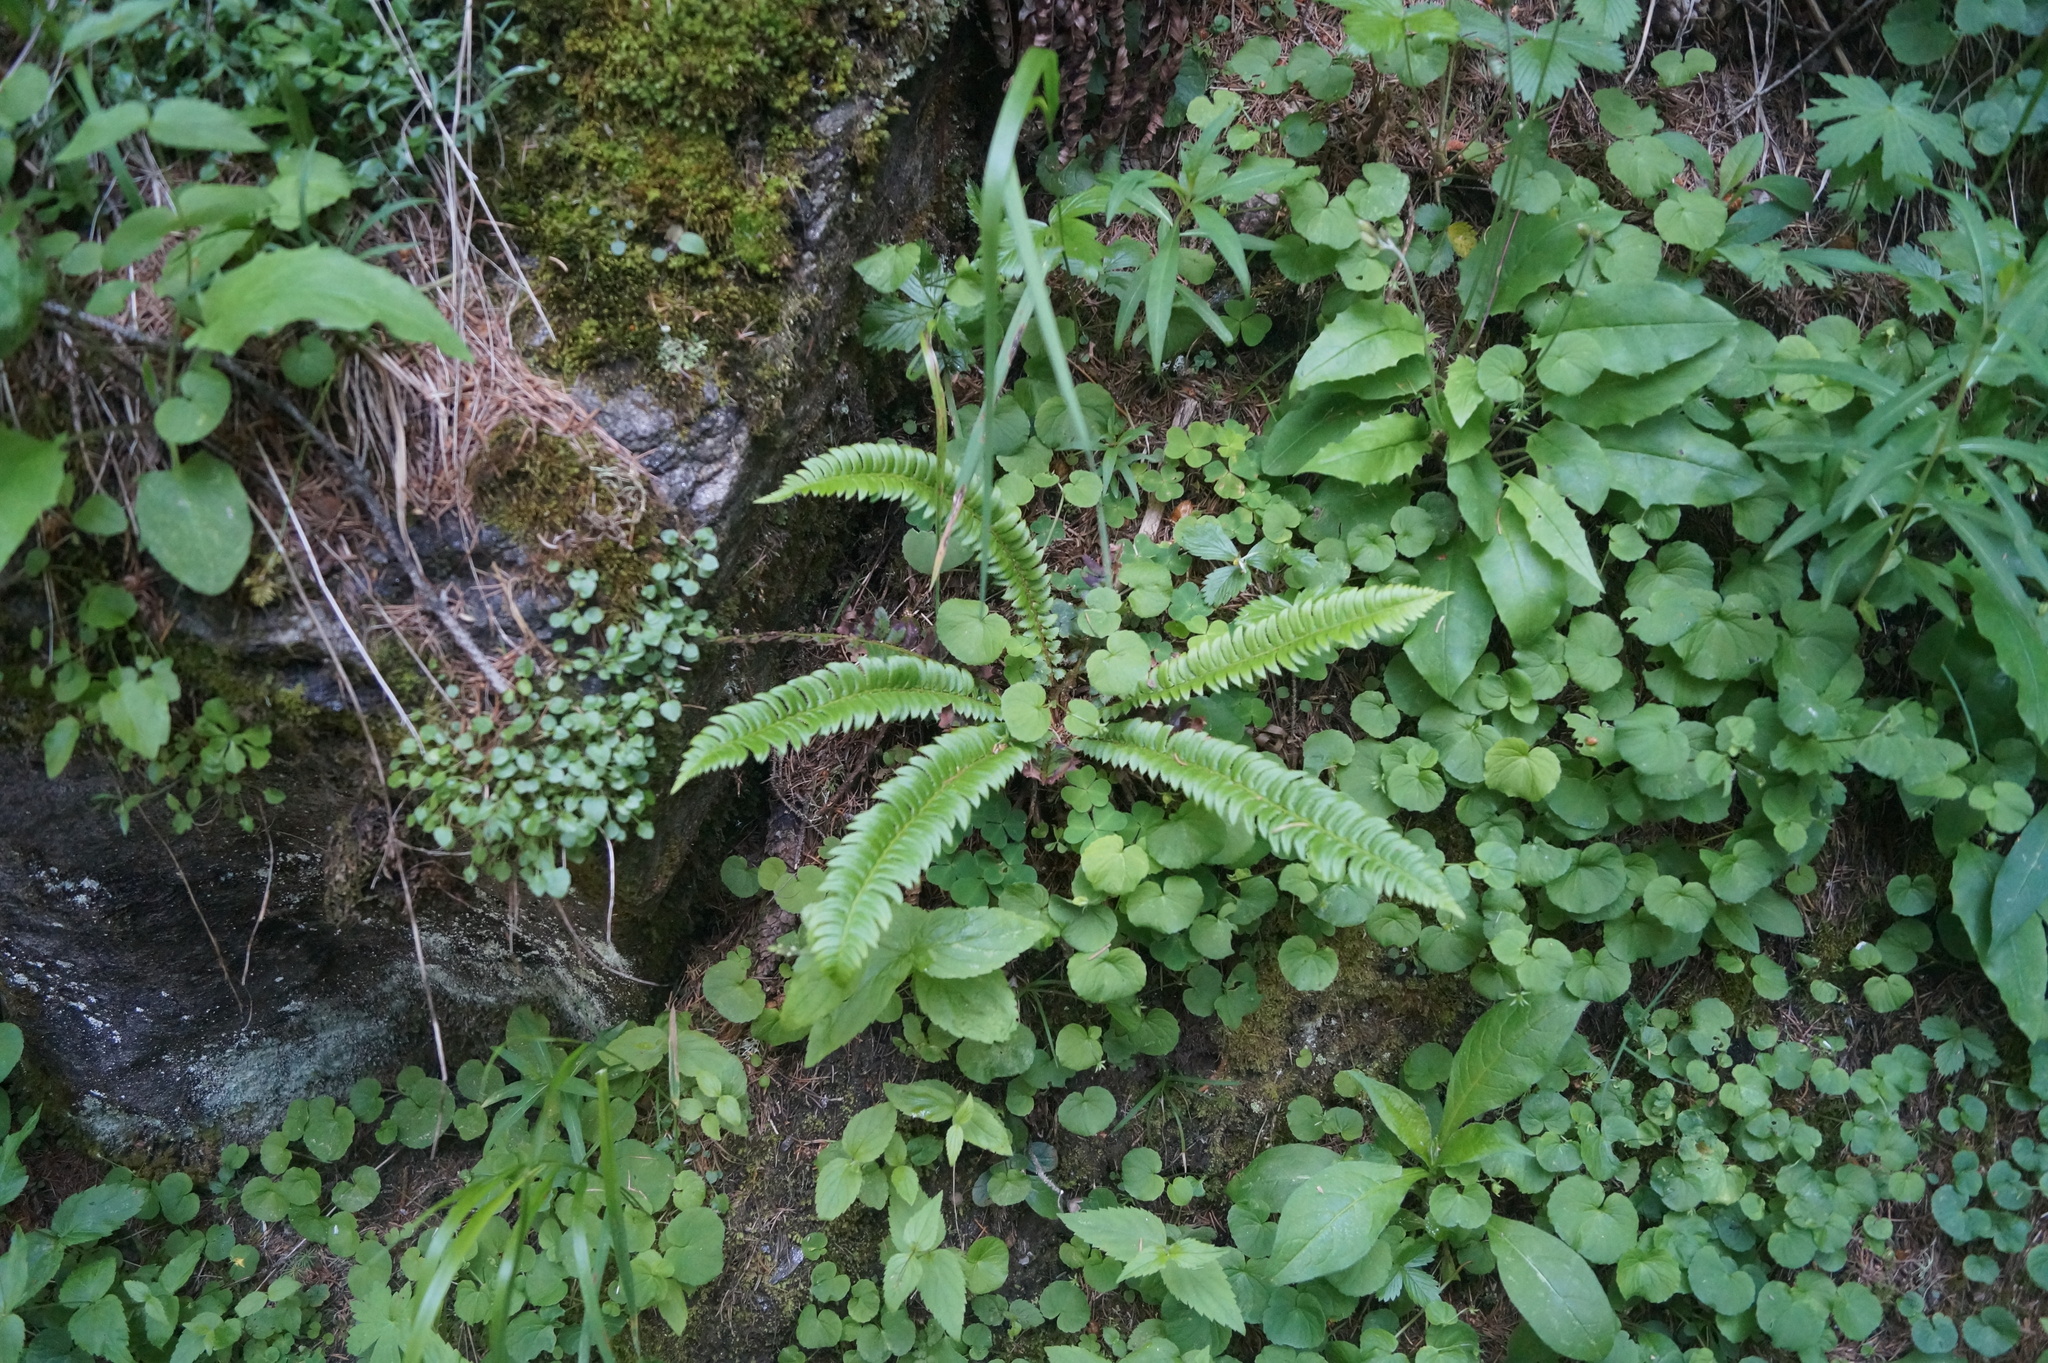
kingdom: Plantae
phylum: Tracheophyta
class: Polypodiopsida
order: Polypodiales
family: Dryopteridaceae
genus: Polystichum
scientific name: Polystichum lonchitis
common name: Holly fern
